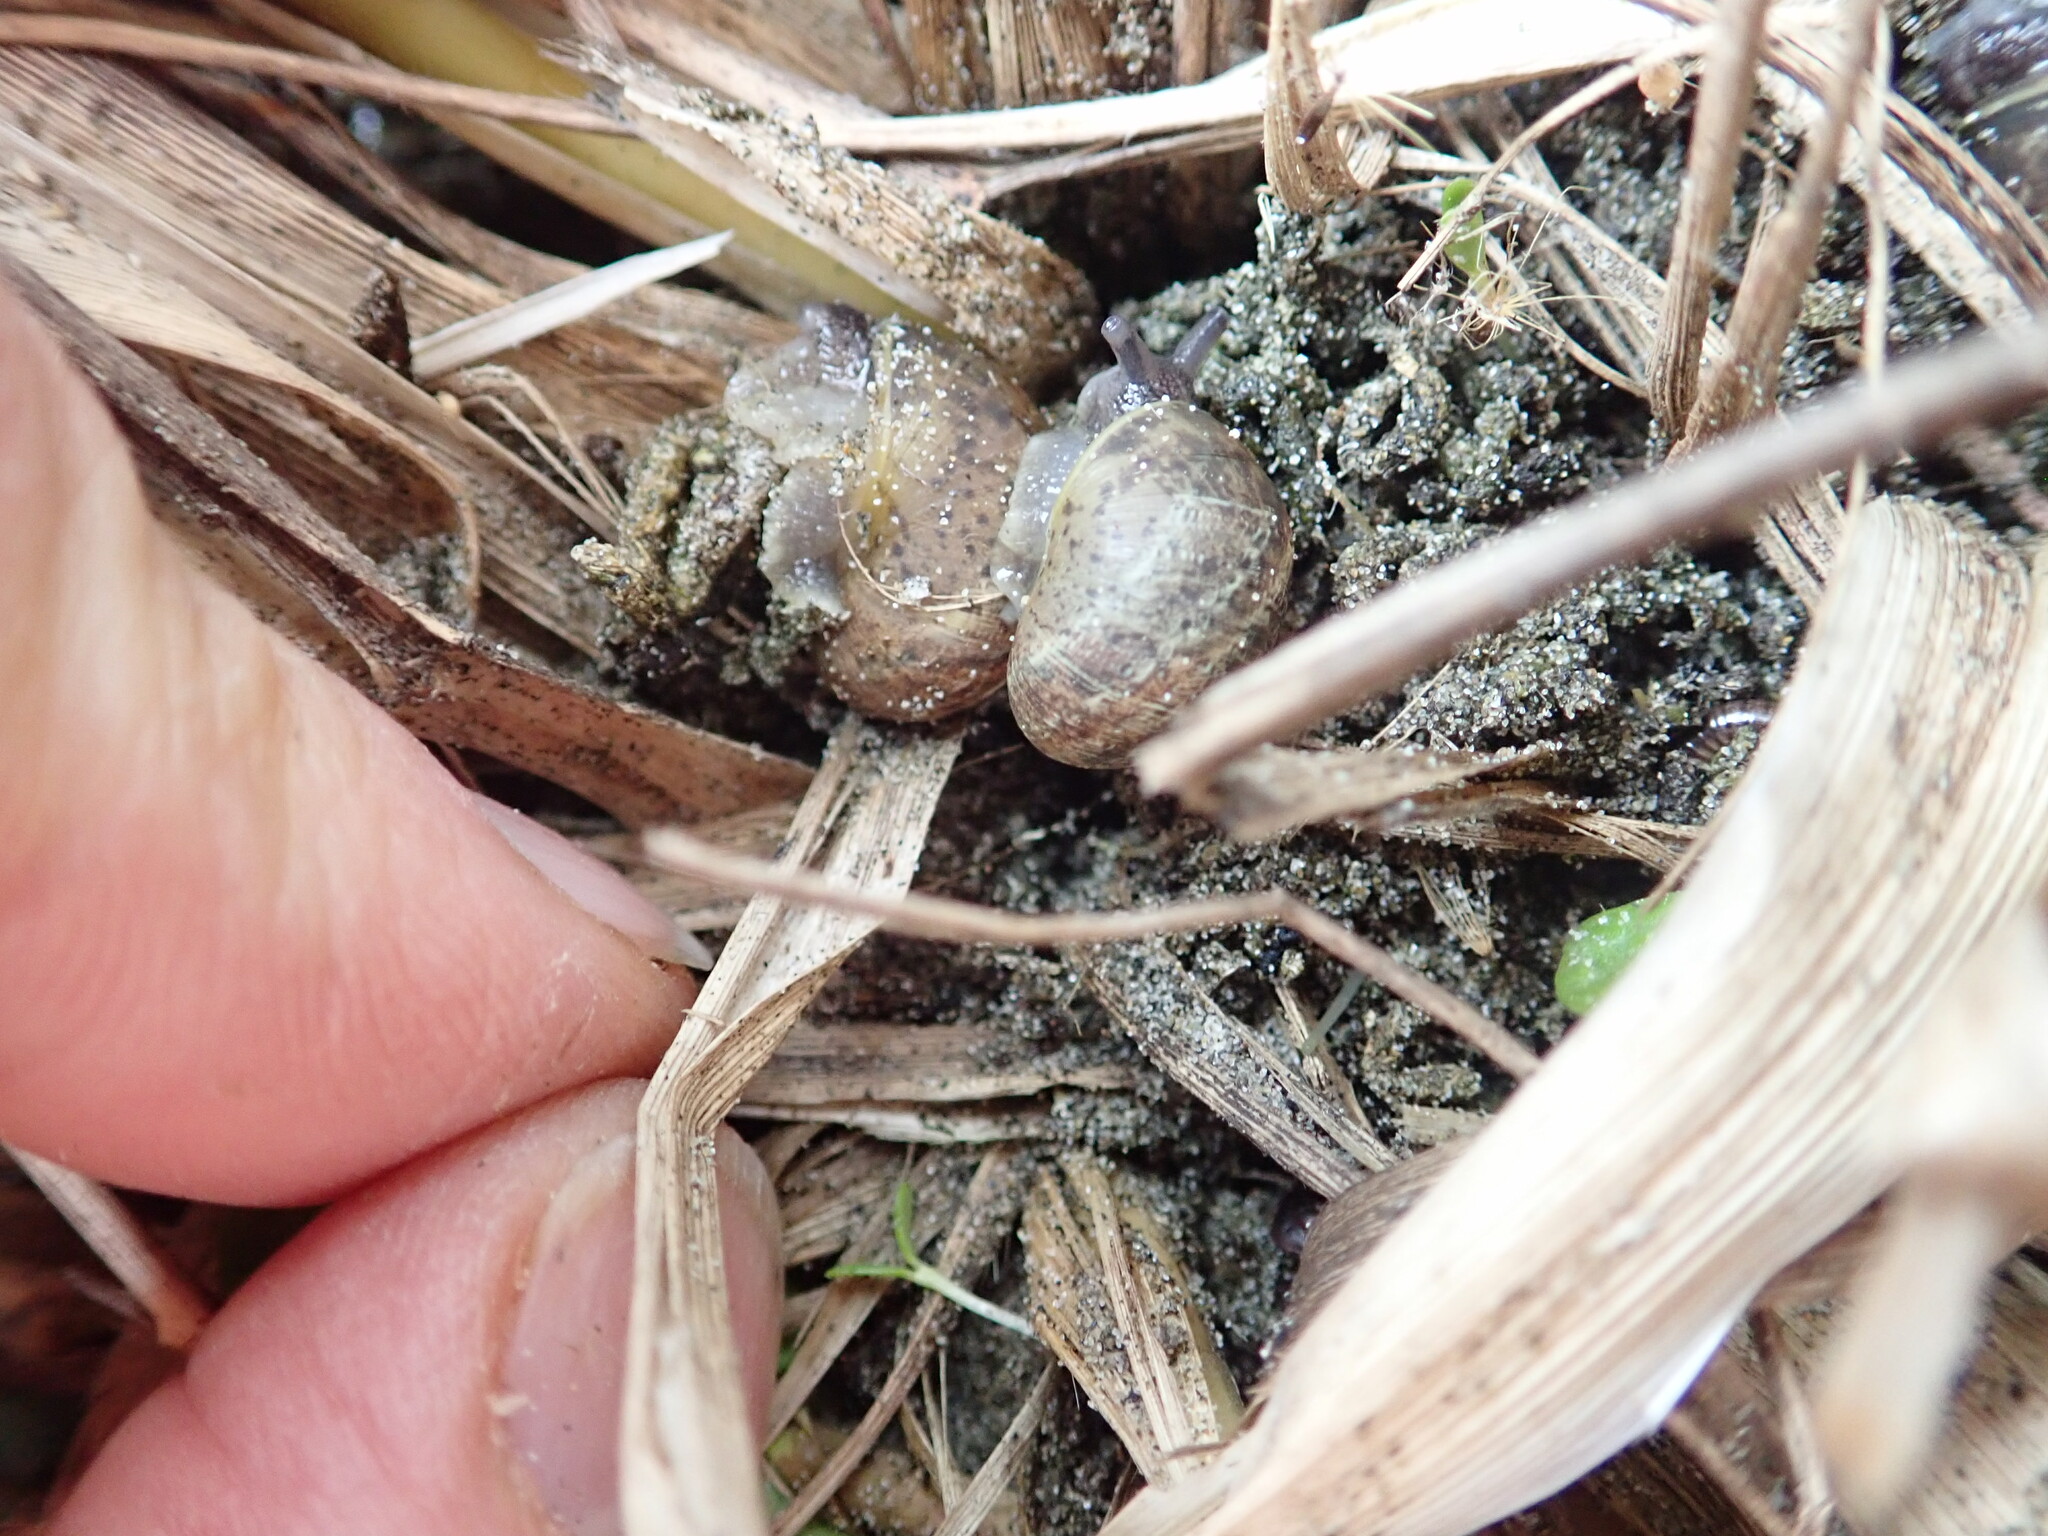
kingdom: Animalia
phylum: Mollusca
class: Gastropoda
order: Stylommatophora
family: Helicidae
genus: Cornu
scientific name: Cornu aspersum
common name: Brown garden snail
